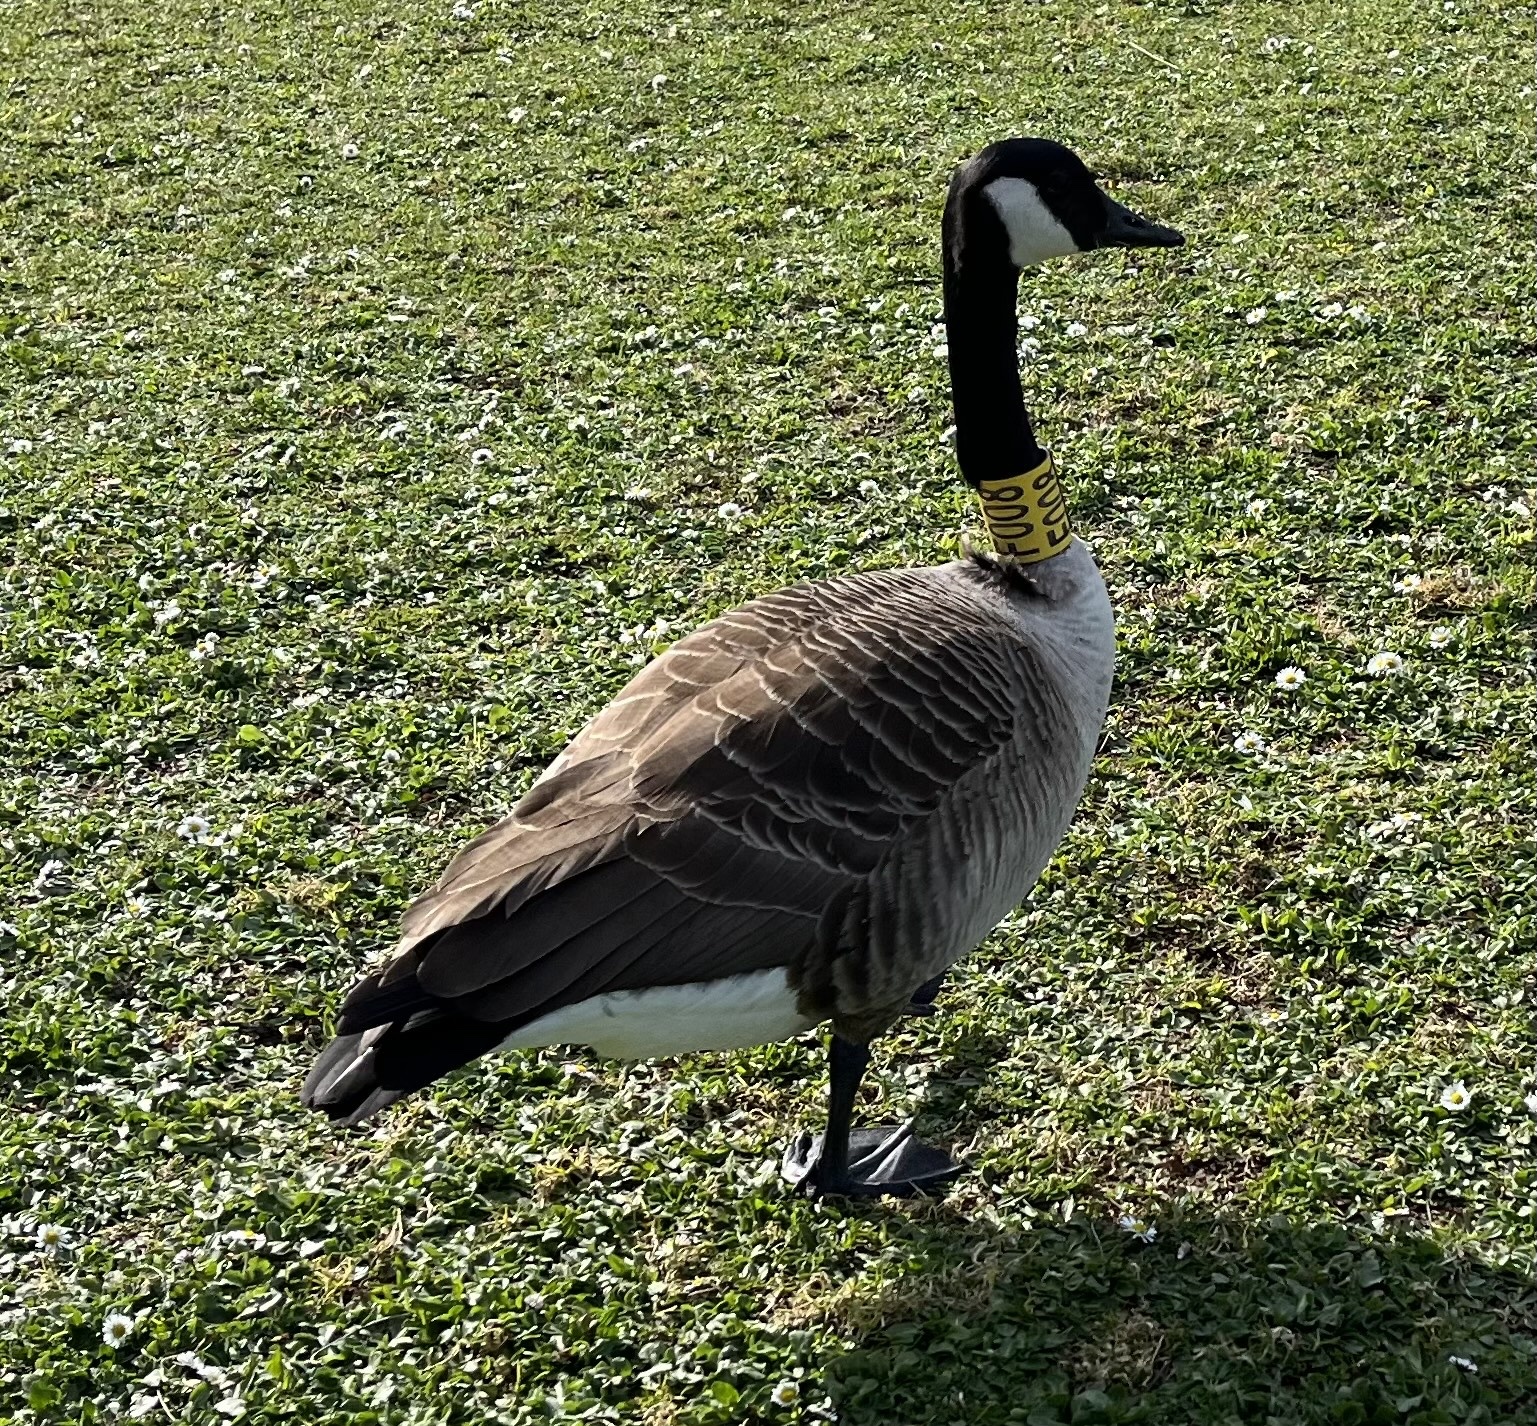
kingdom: Animalia
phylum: Chordata
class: Aves
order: Anseriformes
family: Anatidae
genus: Branta
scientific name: Branta canadensis
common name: Canada goose
